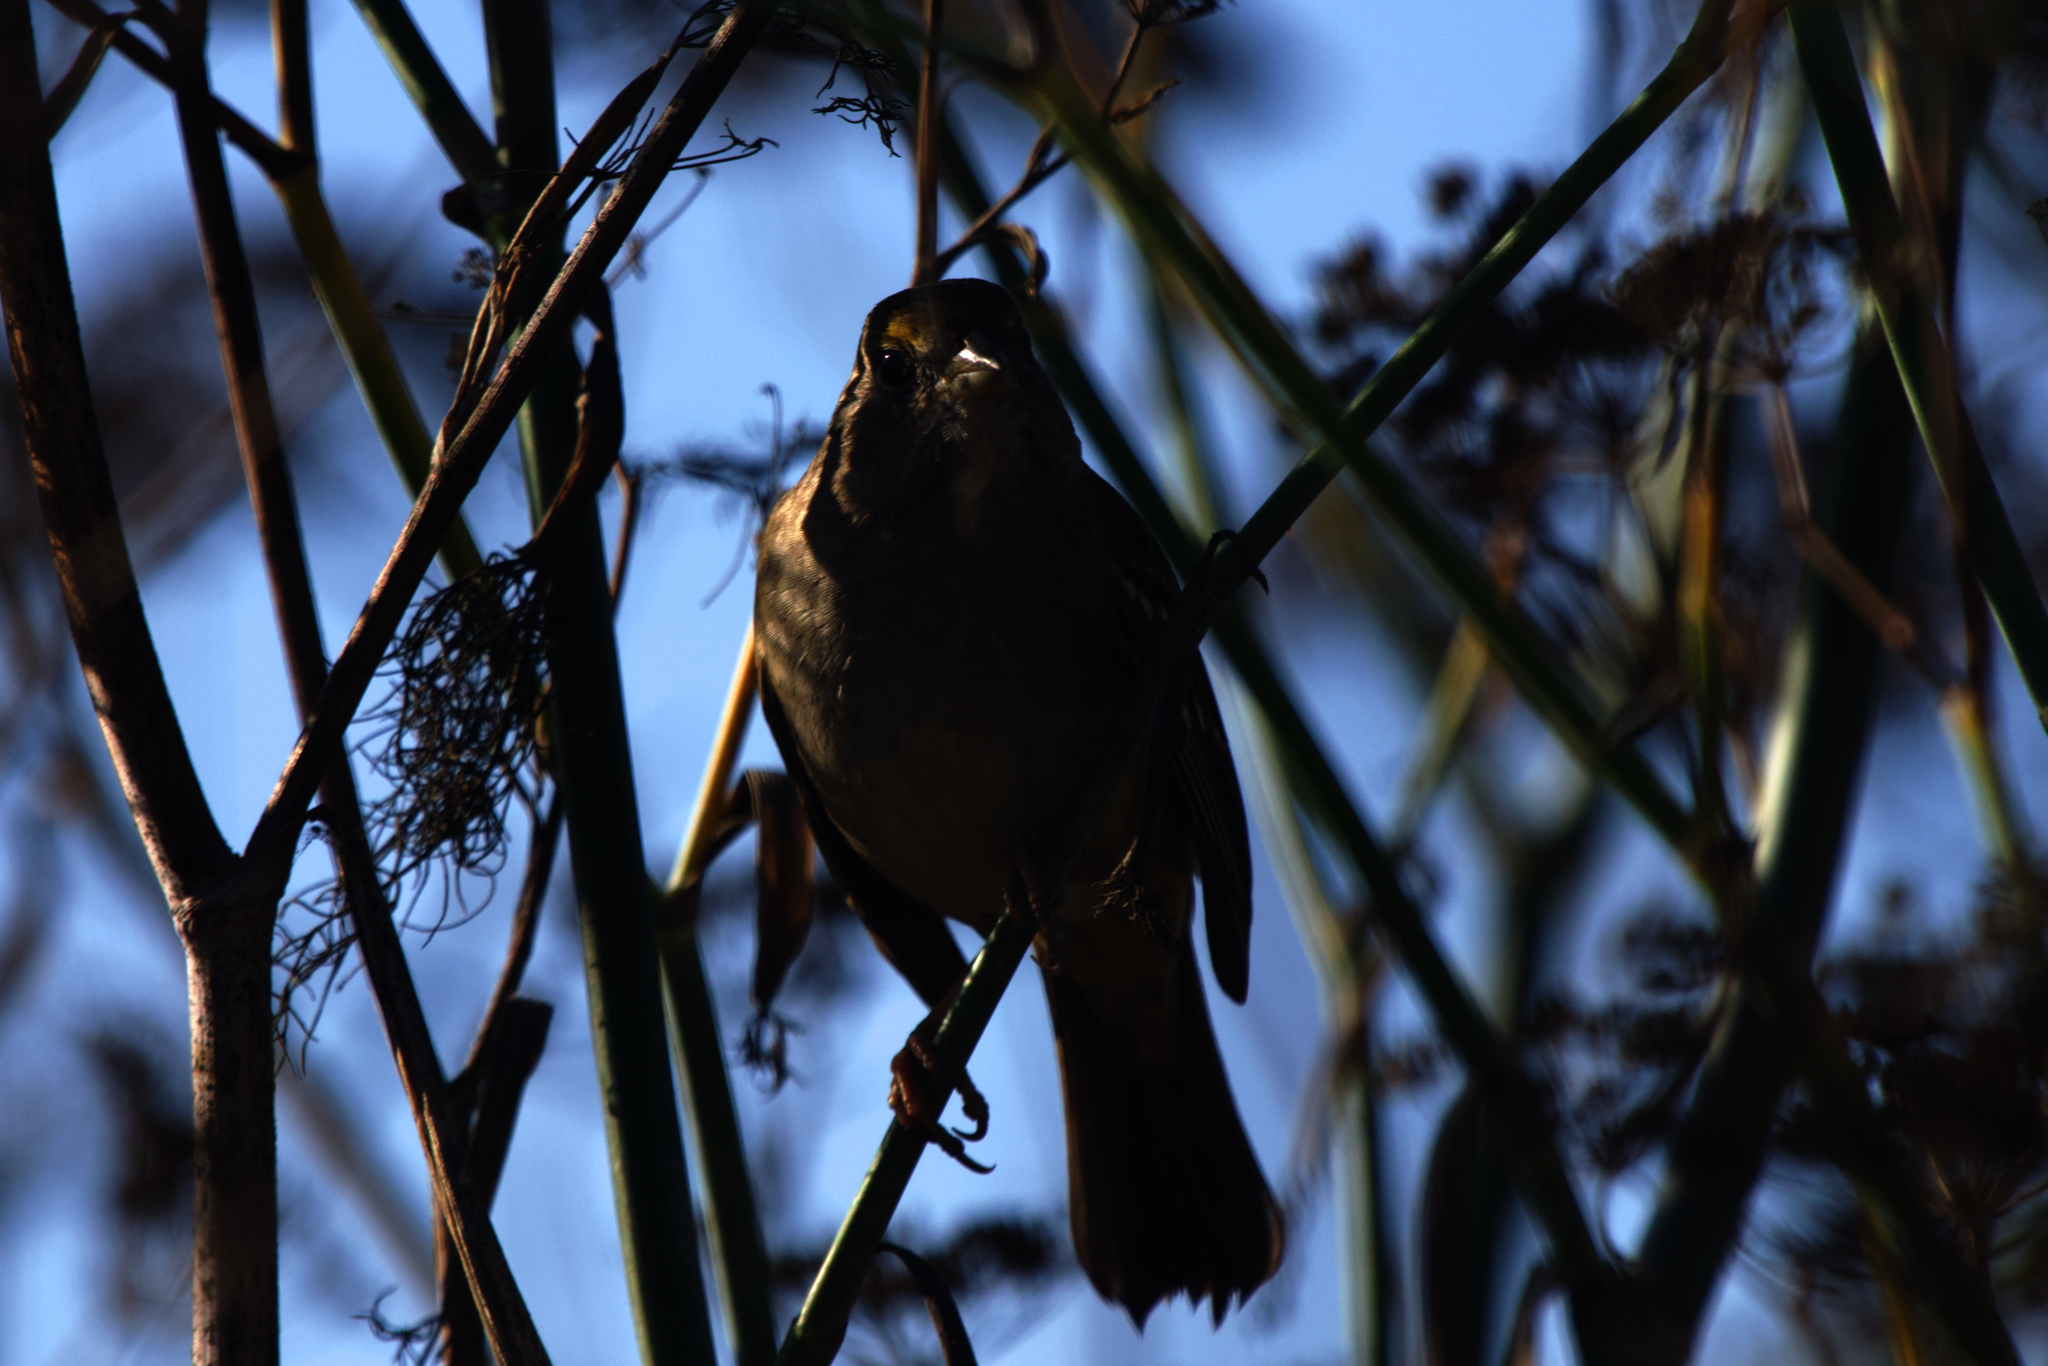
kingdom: Animalia
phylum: Chordata
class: Aves
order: Passeriformes
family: Passerellidae
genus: Zonotrichia
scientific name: Zonotrichia atricapilla
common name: Golden-crowned sparrow
